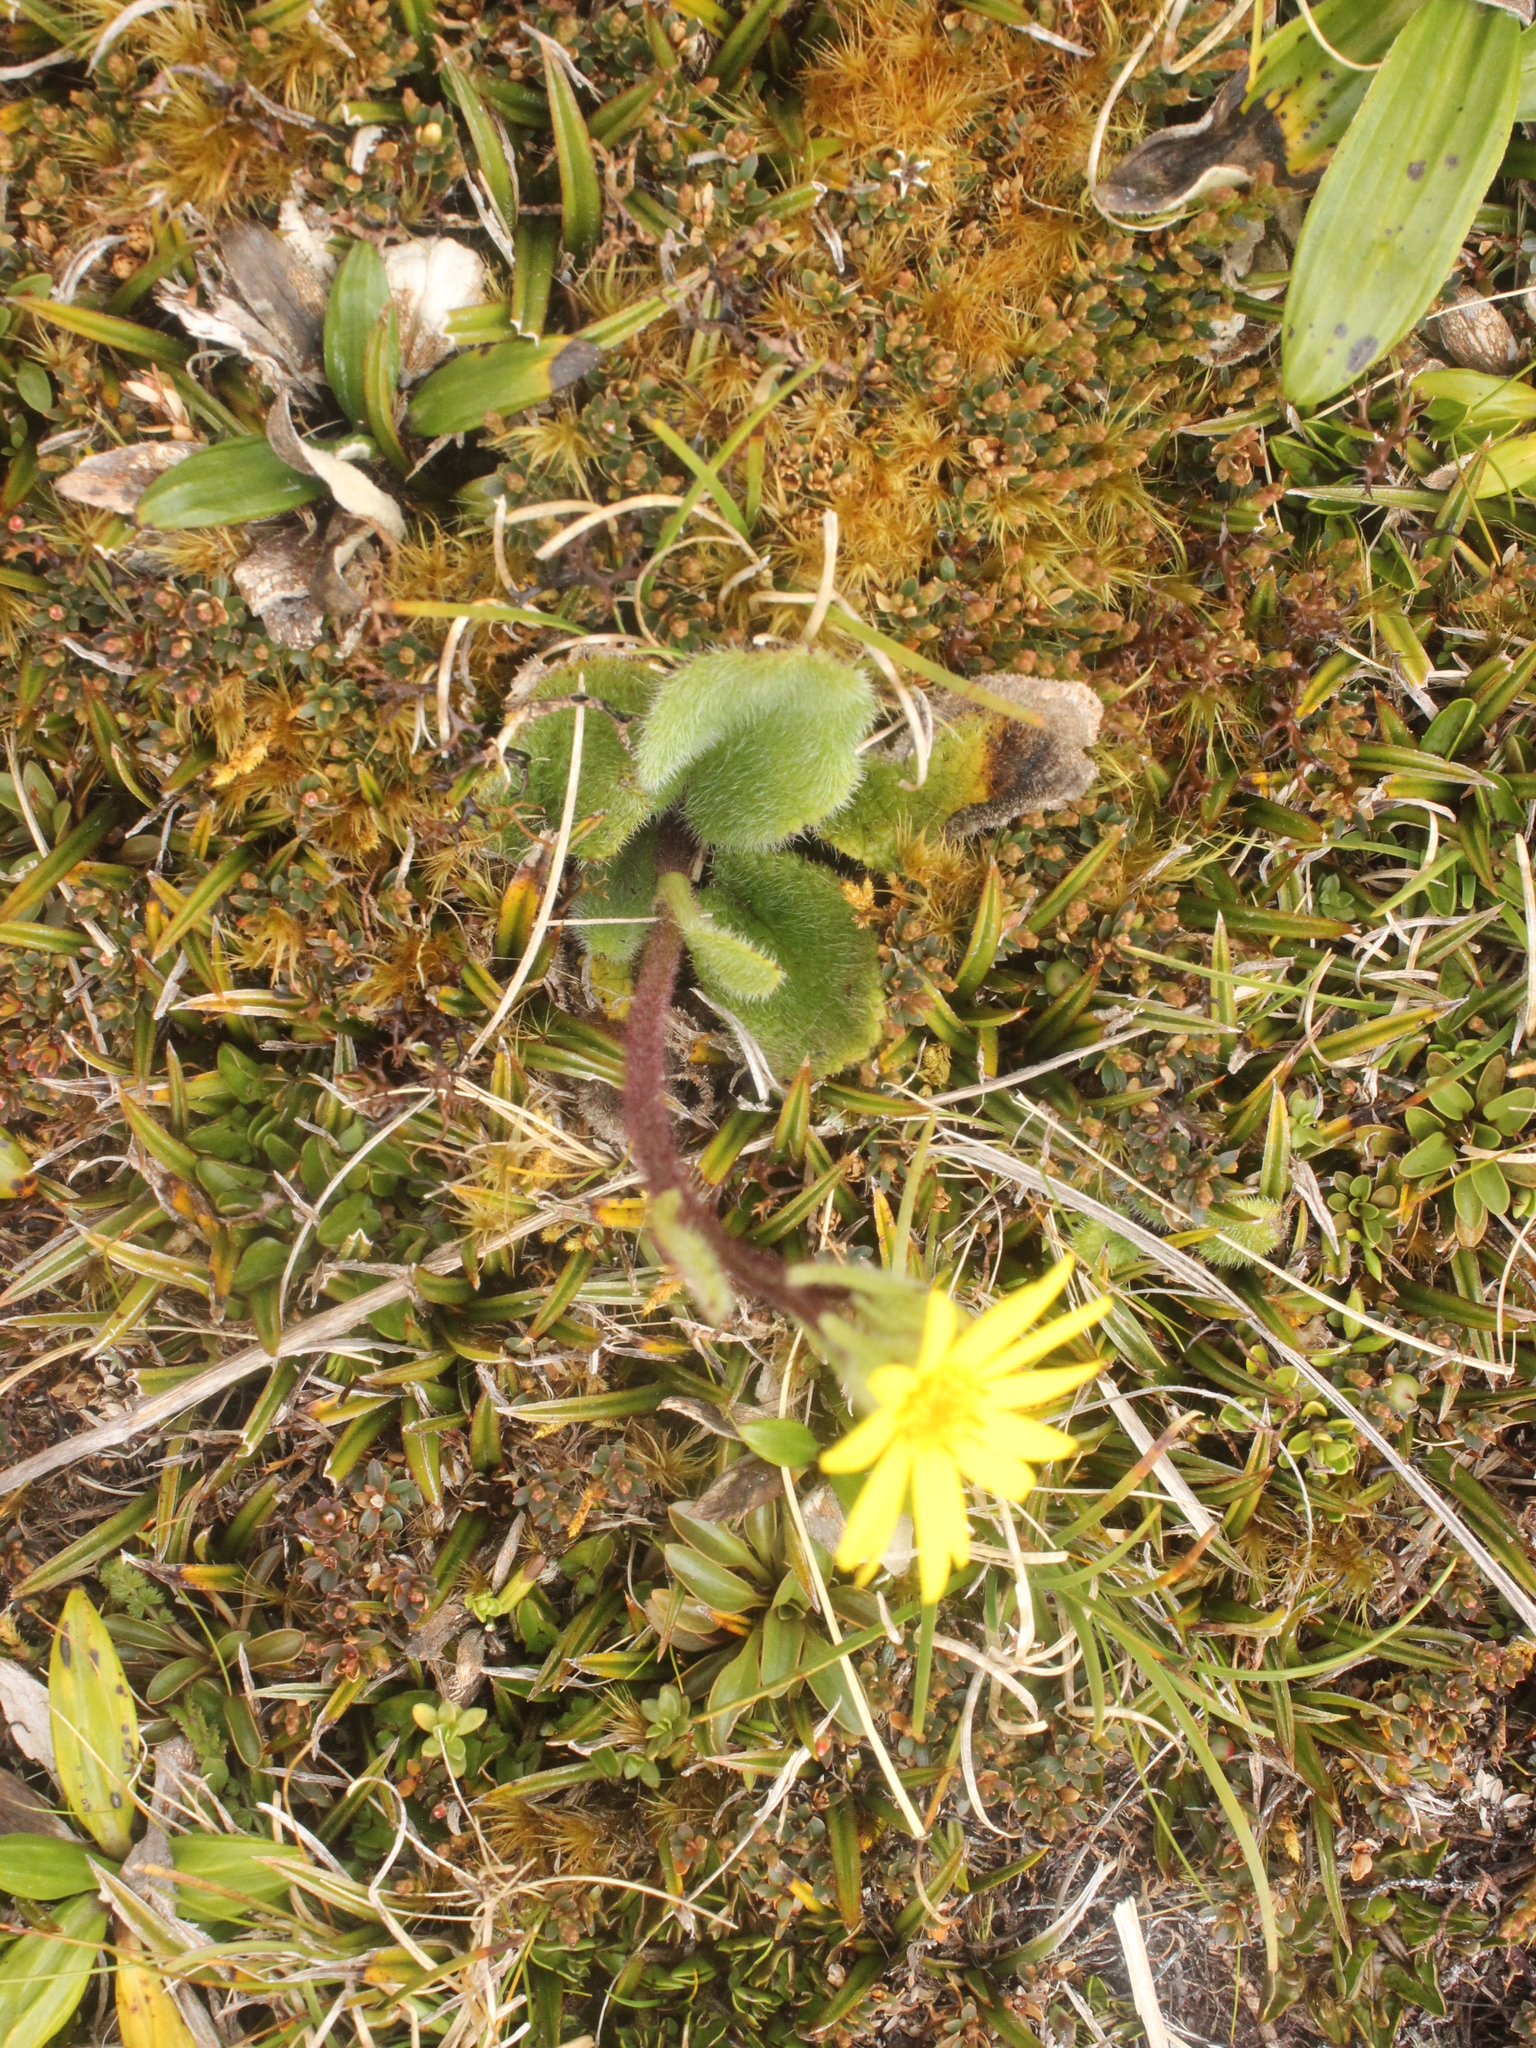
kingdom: Plantae
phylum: Tracheophyta
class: Magnoliopsida
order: Asterales
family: Asteraceae
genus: Brachyglottis
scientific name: Brachyglottis lagopus
